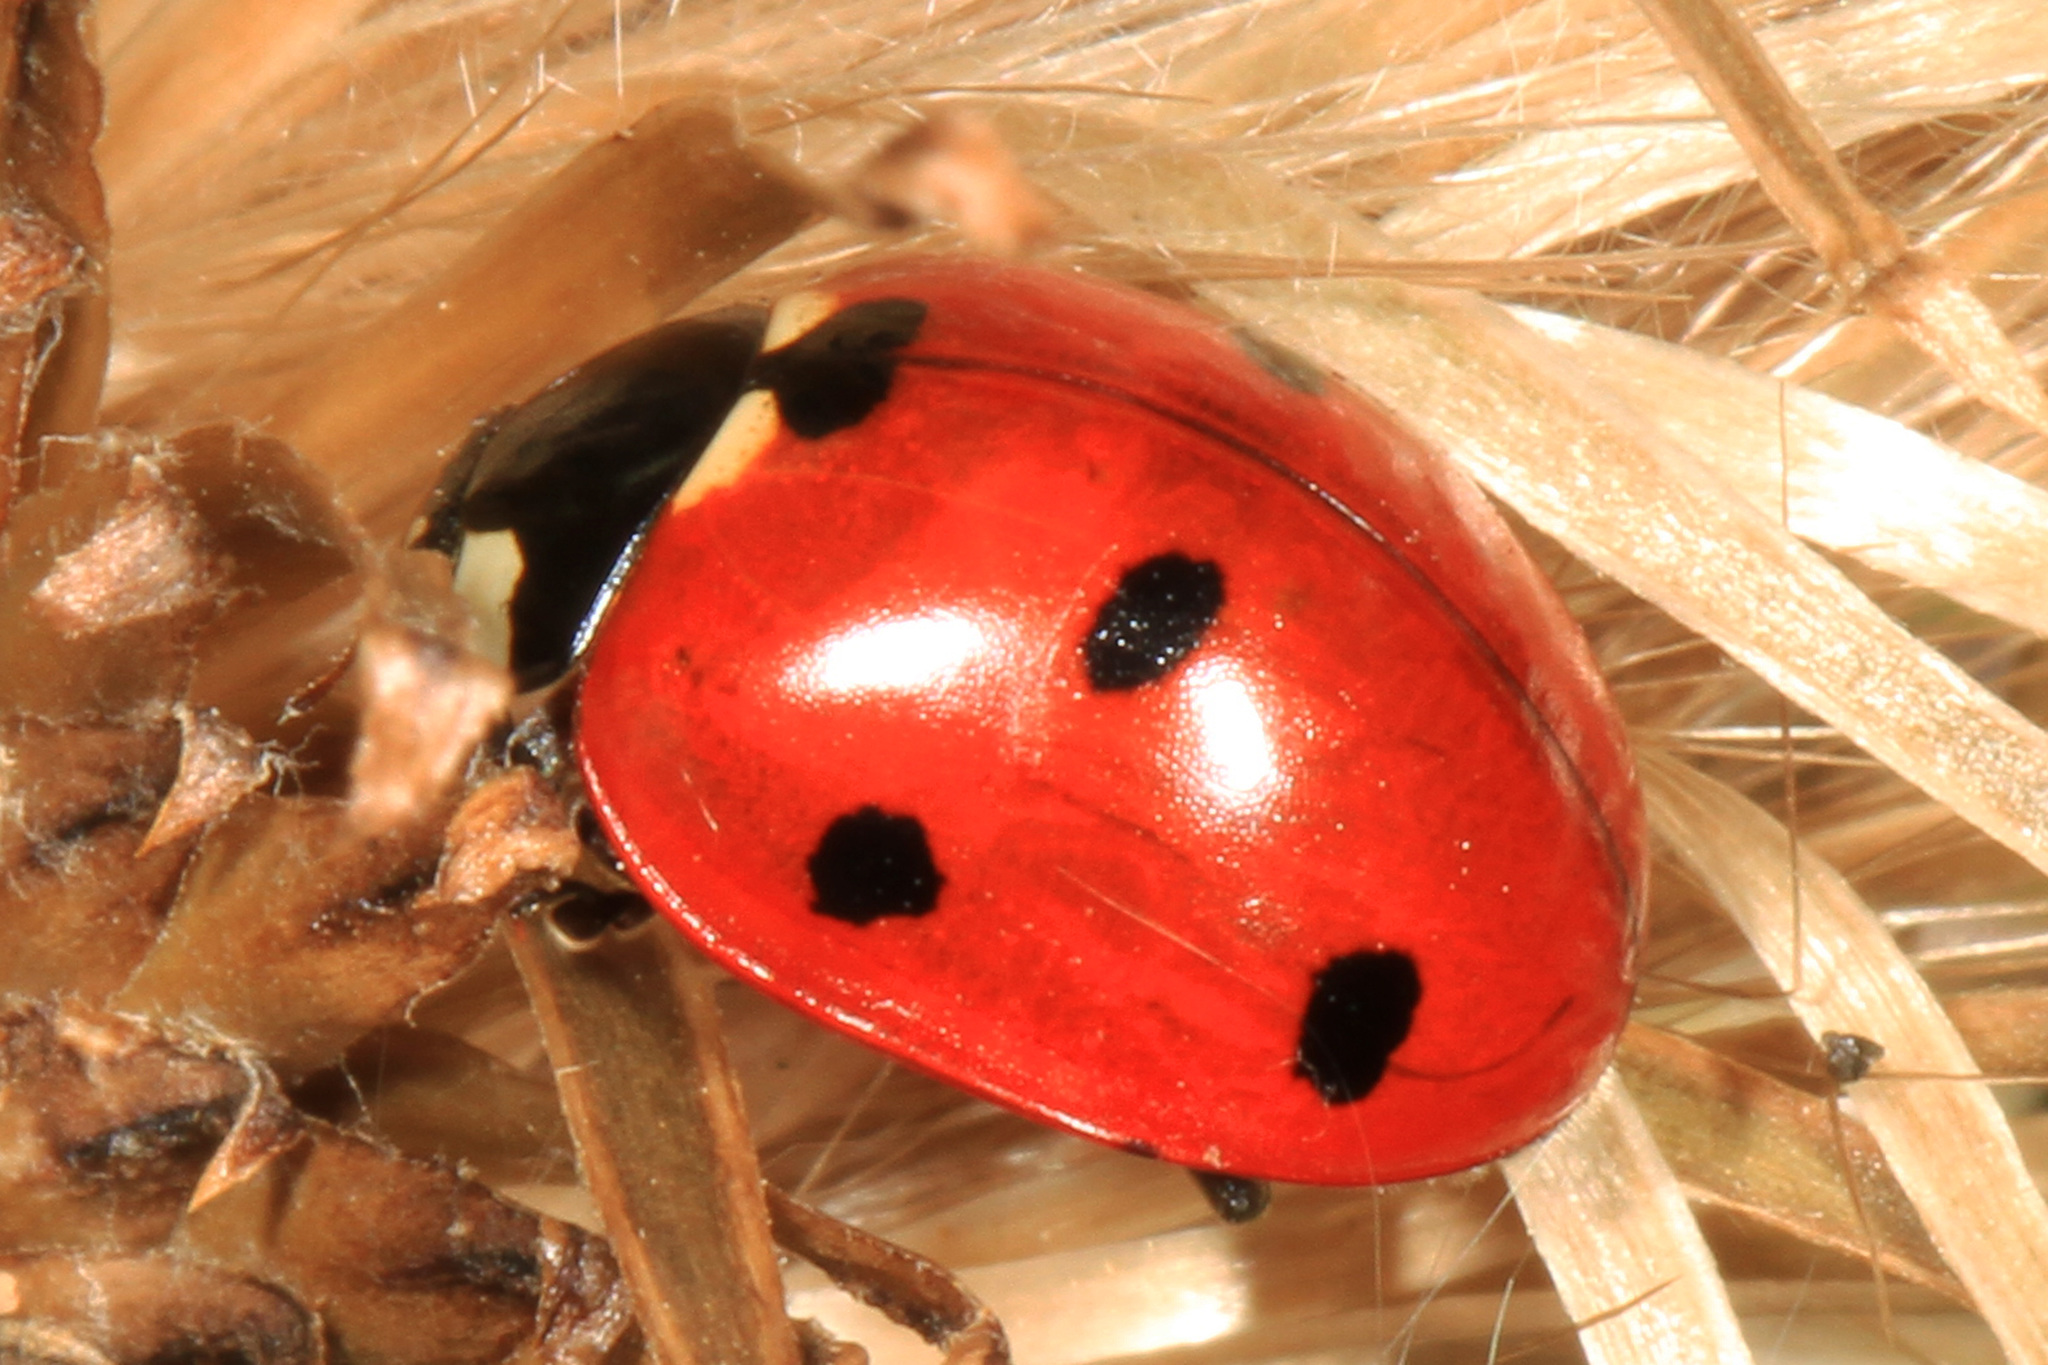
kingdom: Animalia
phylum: Arthropoda
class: Insecta
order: Coleoptera
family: Coccinellidae
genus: Coccinella
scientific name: Coccinella septempunctata
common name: Sevenspotted lady beetle
